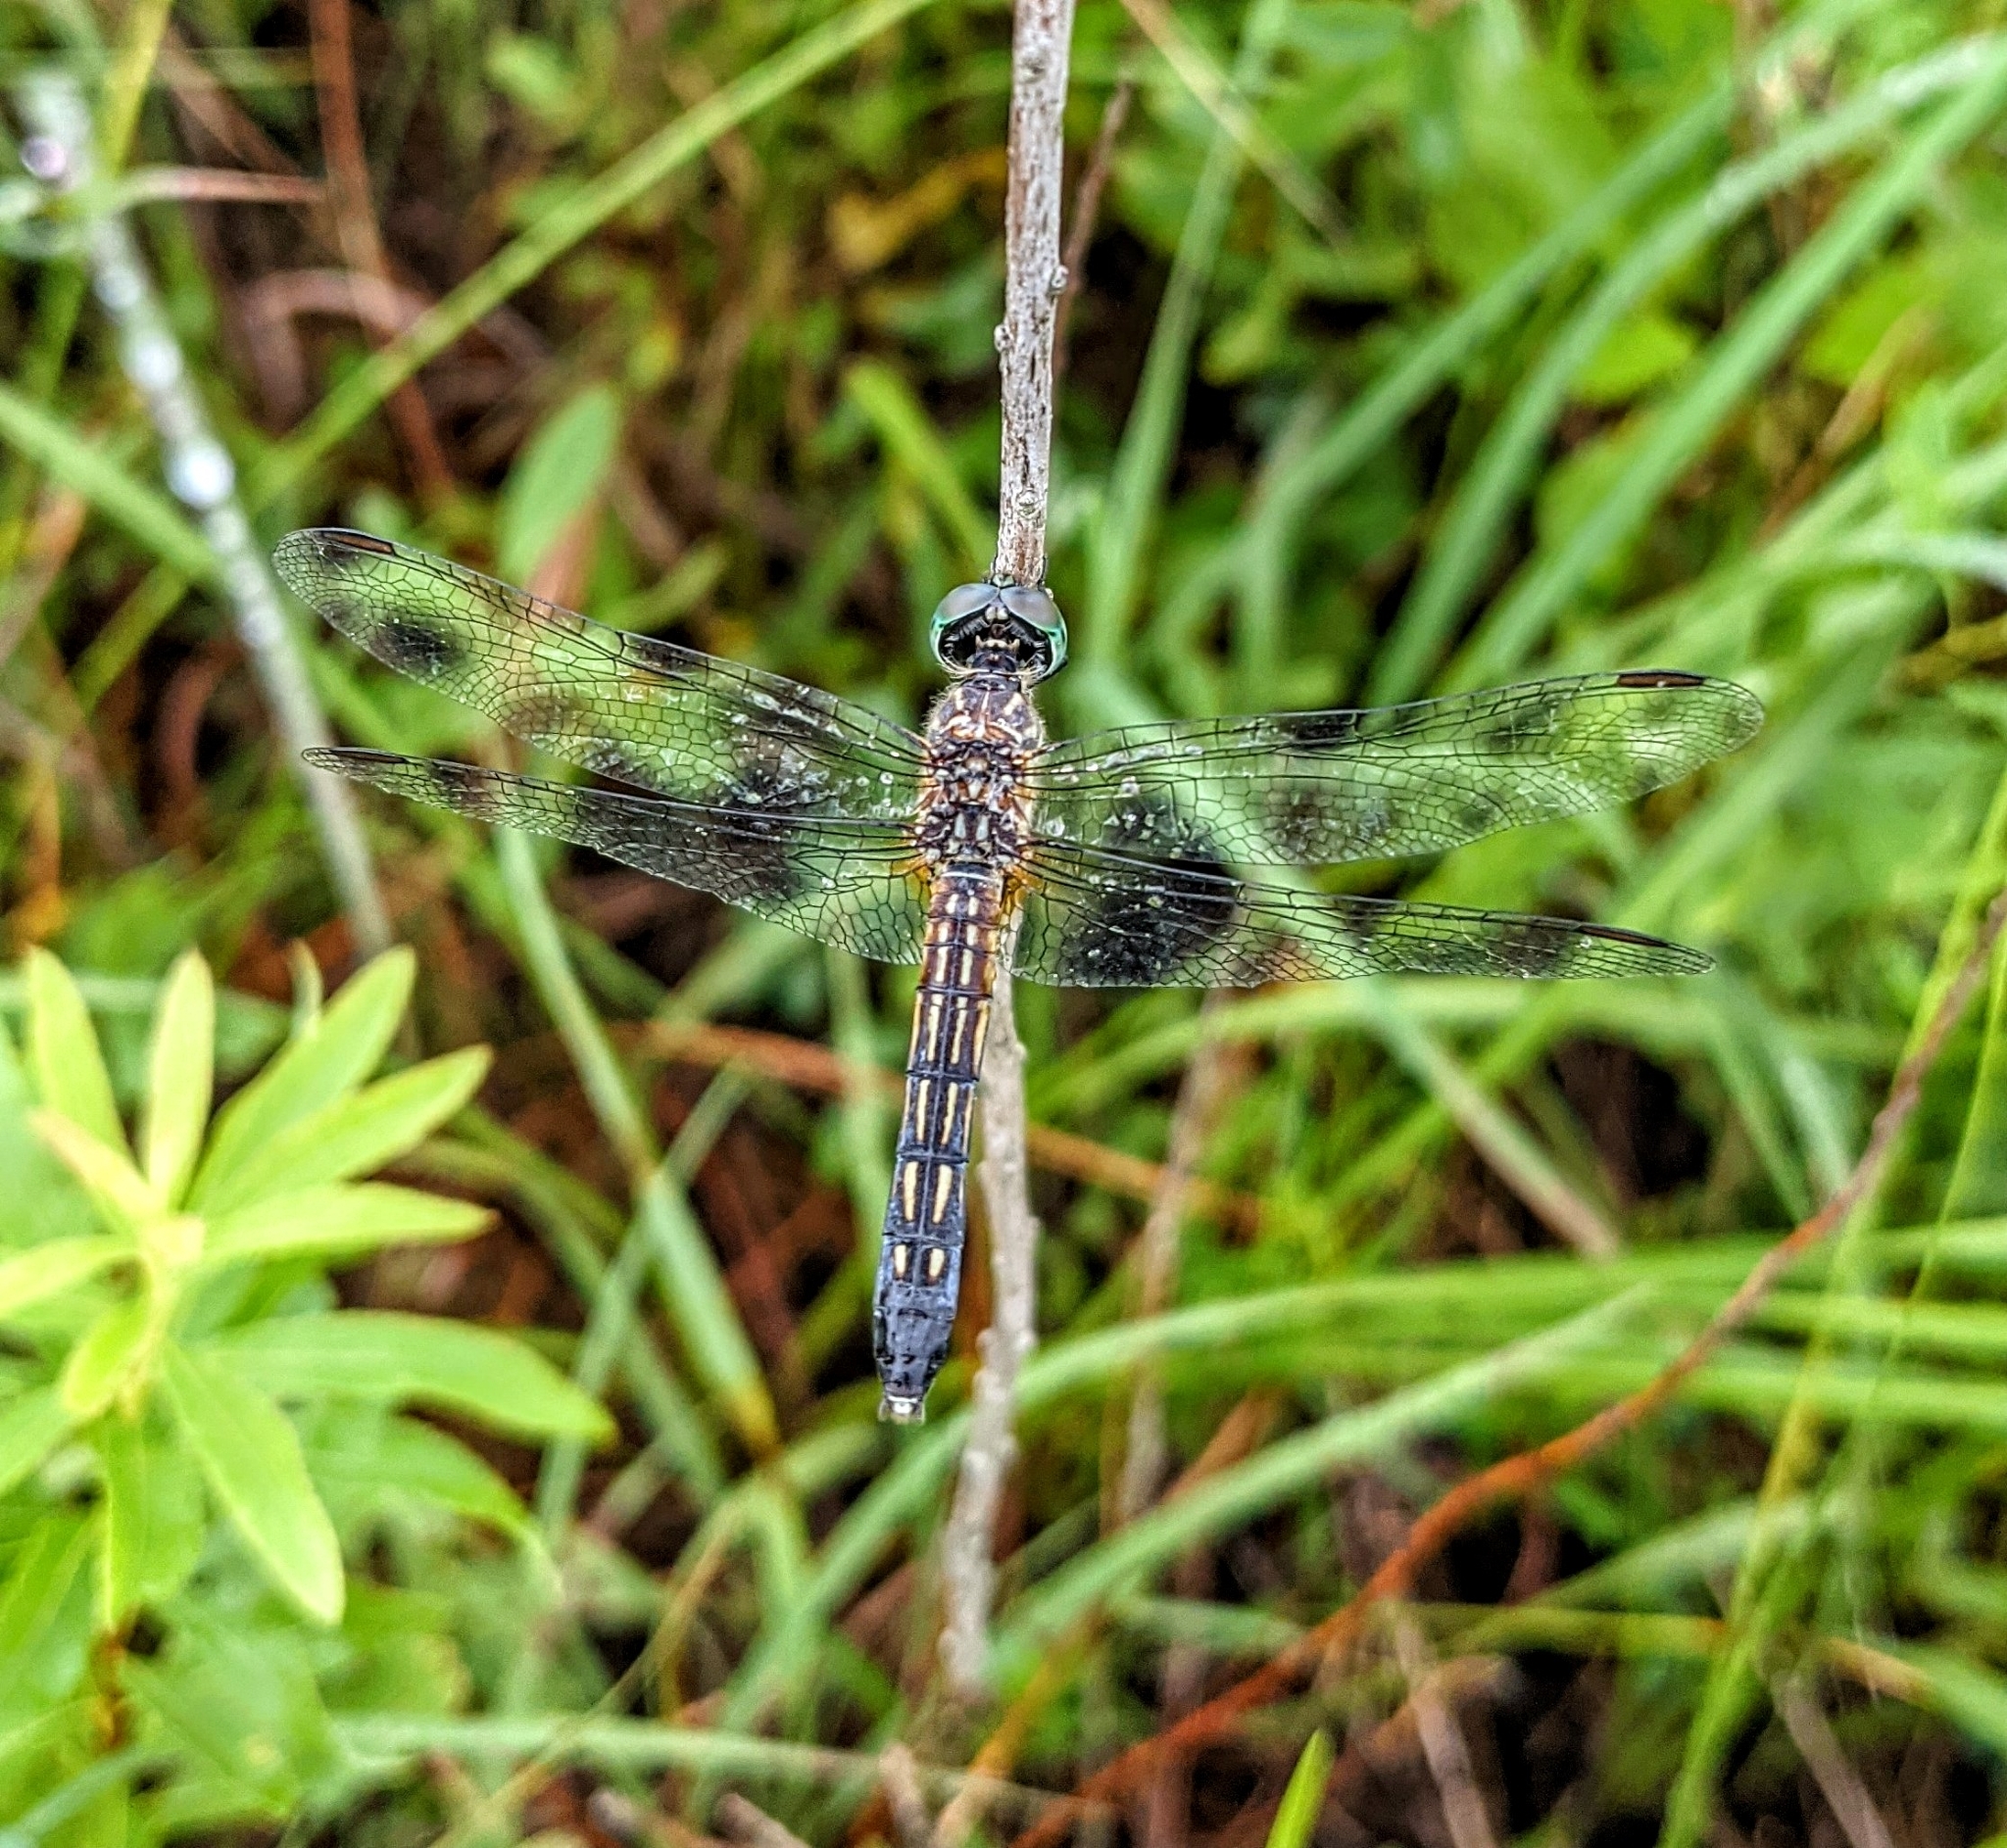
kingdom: Animalia
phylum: Arthropoda
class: Insecta
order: Odonata
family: Libellulidae
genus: Pachydiplax
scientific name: Pachydiplax longipennis
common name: Blue dasher
